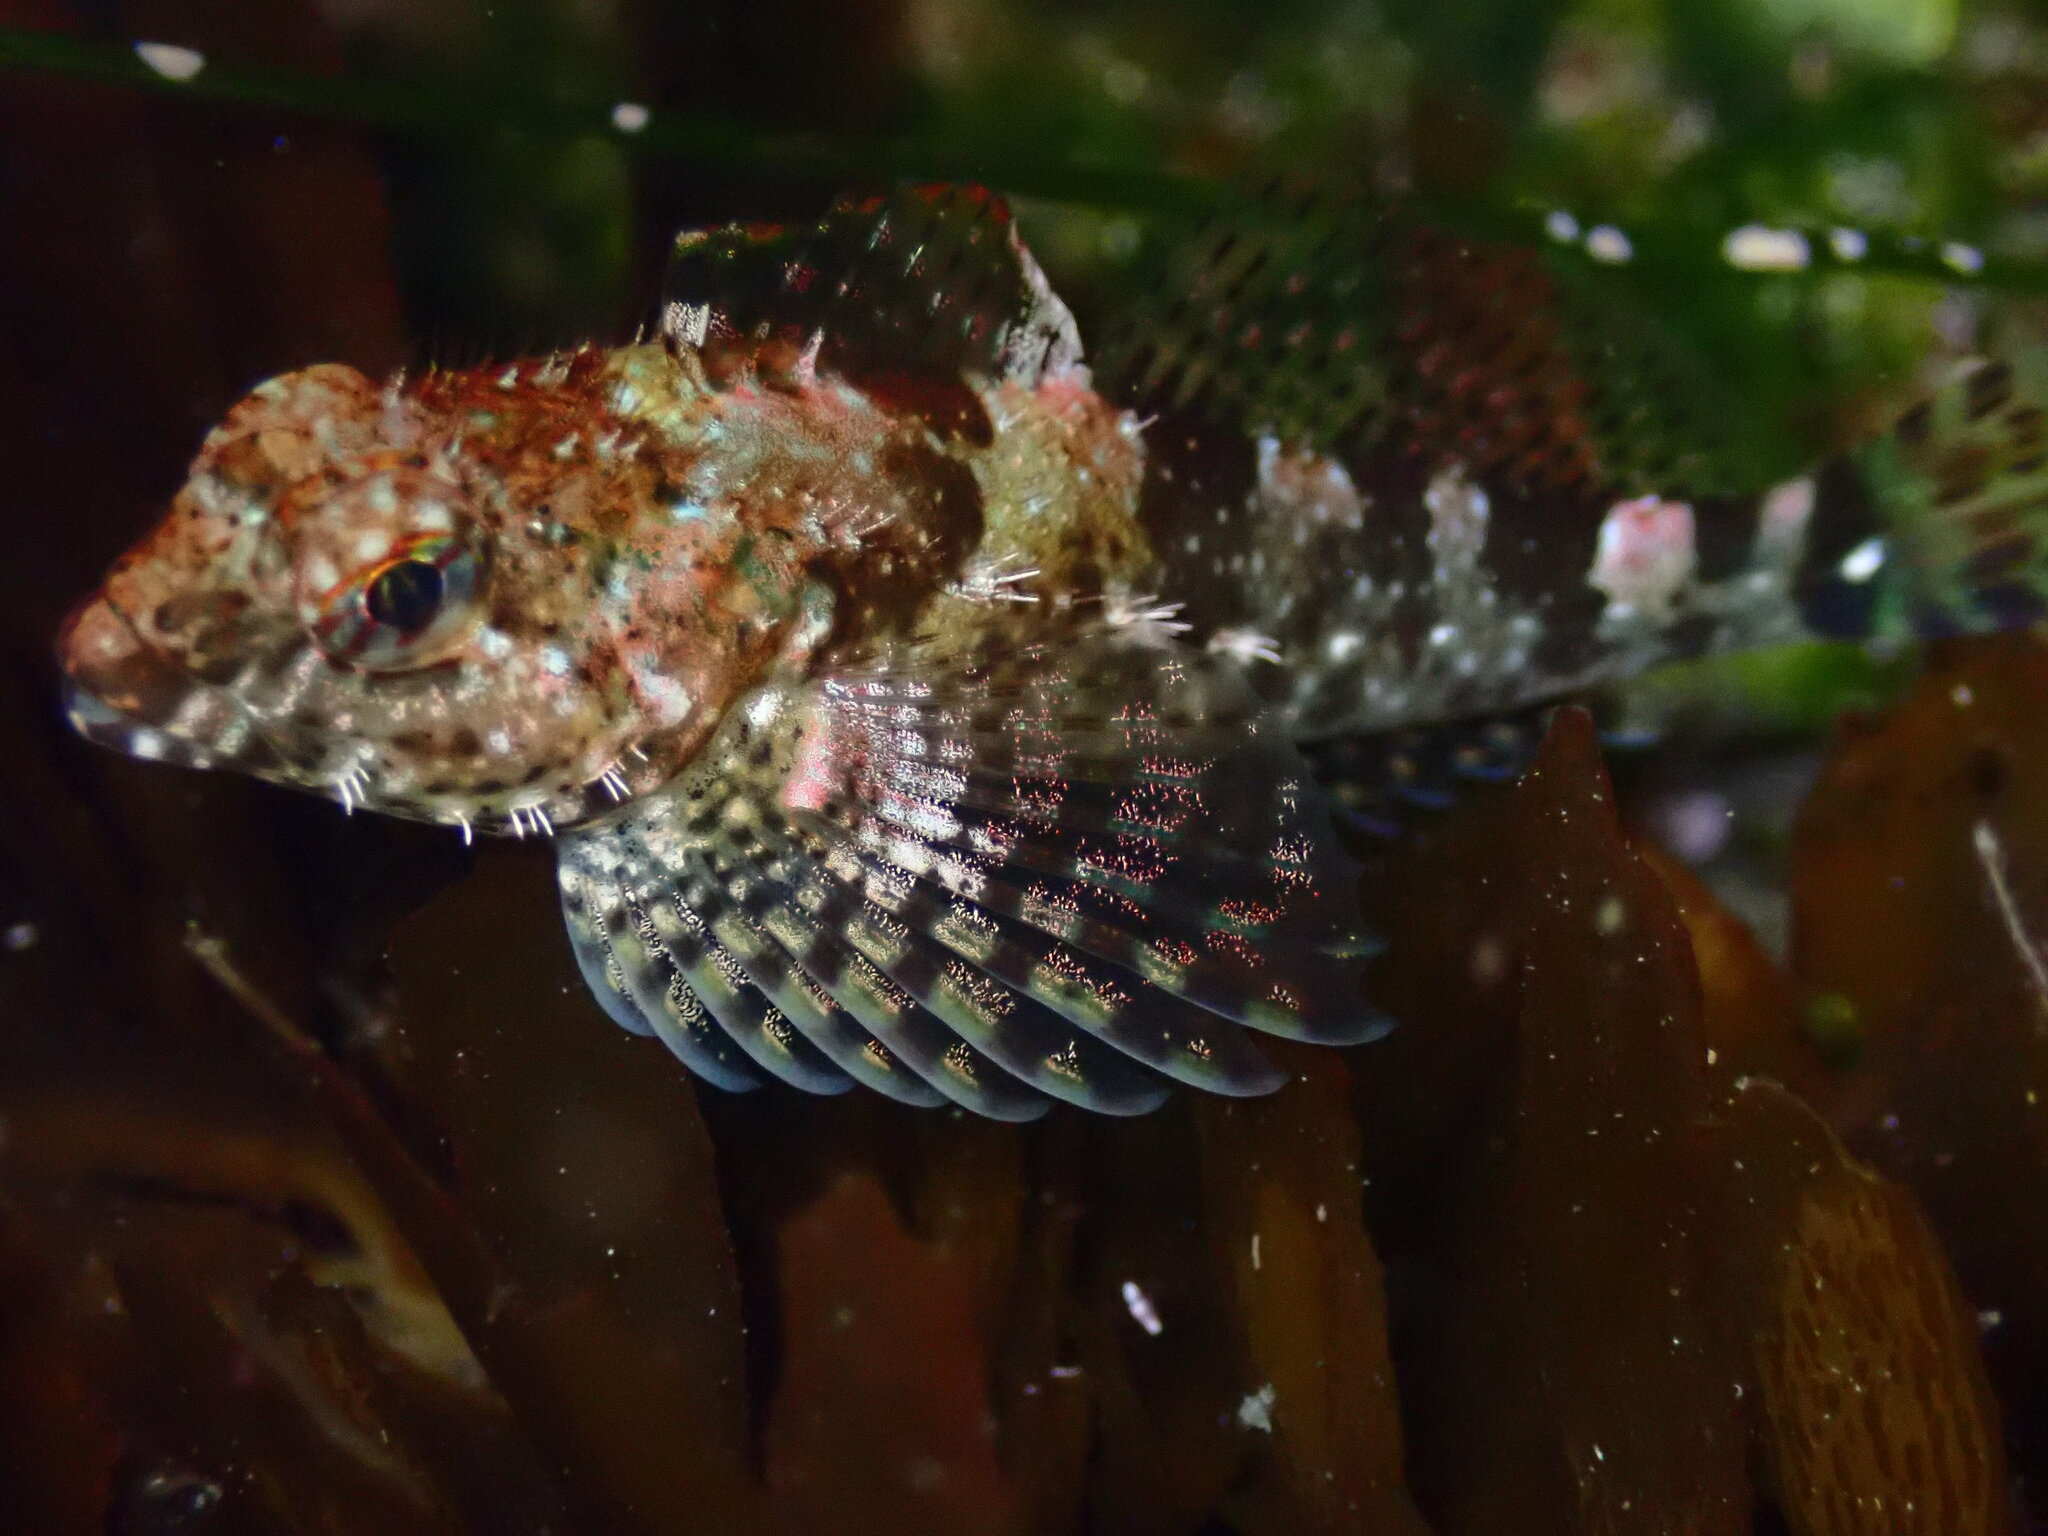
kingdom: Animalia
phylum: Chordata
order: Scorpaeniformes
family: Cottidae
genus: Clinocottus
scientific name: Clinocottus analis
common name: Woolly sculpin
